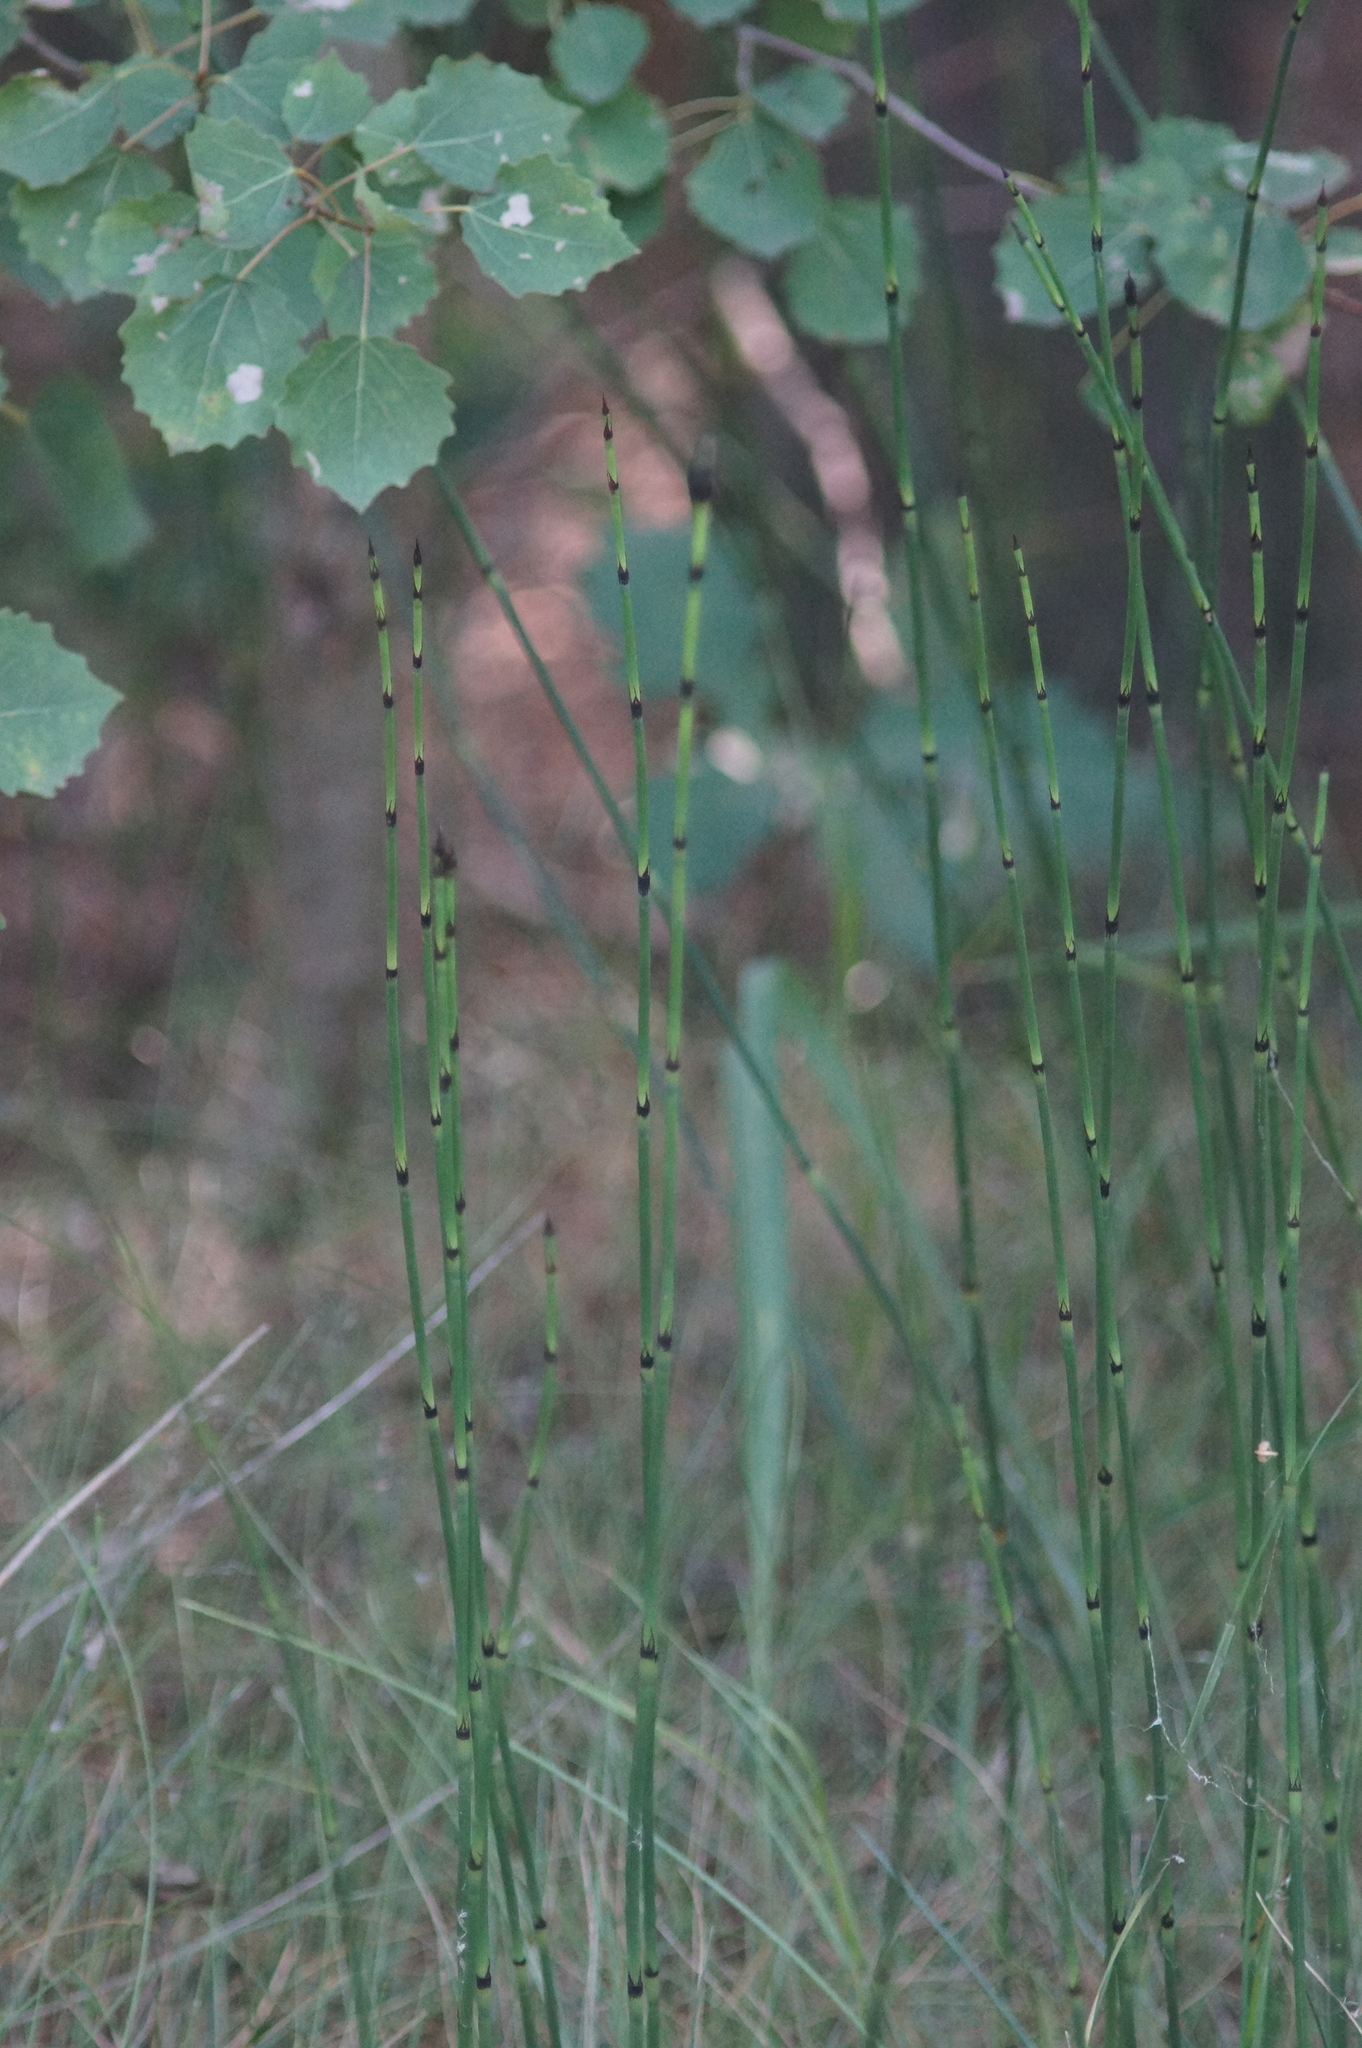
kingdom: Plantae
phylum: Tracheophyta
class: Polypodiopsida
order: Equisetales
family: Equisetaceae
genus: Equisetum
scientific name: Equisetum hyemale
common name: Rough horsetail
